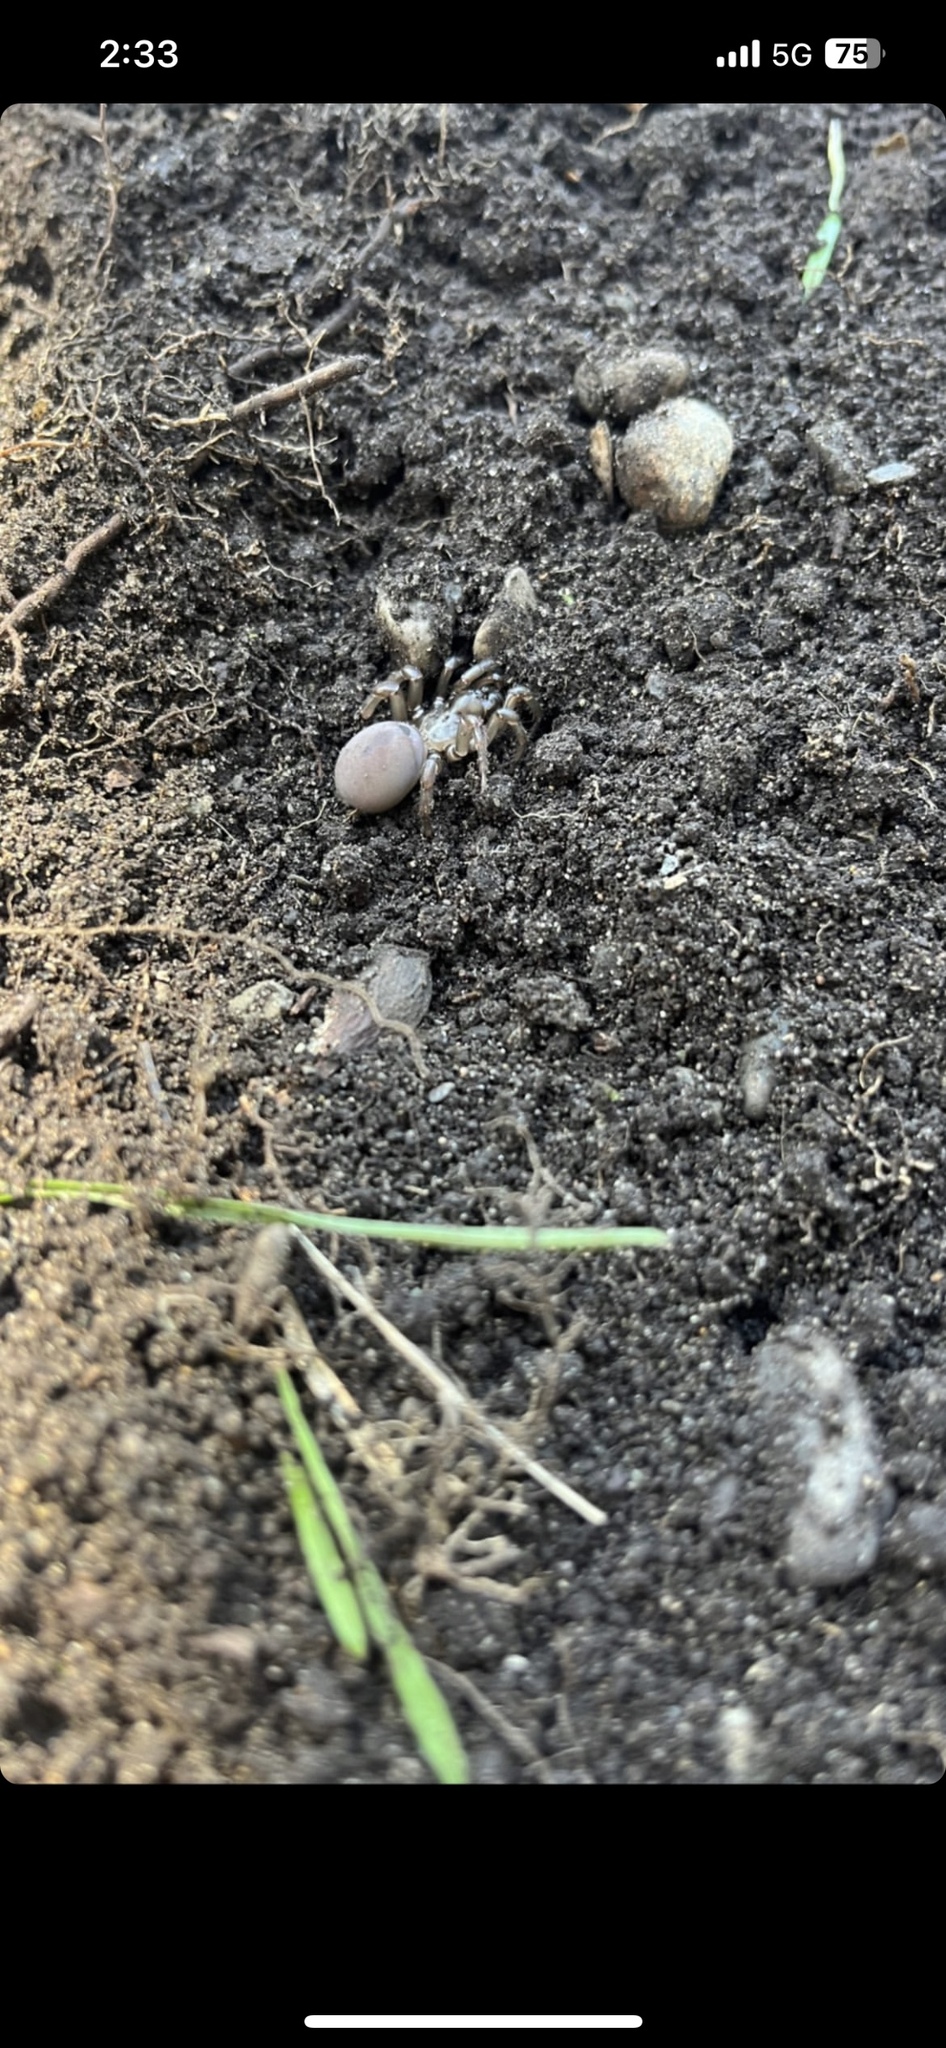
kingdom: Animalia
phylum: Arthropoda
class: Arachnida
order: Araneae
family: Antrodiaetidae
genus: Antrodiaetus
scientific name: Antrodiaetus pacificus
